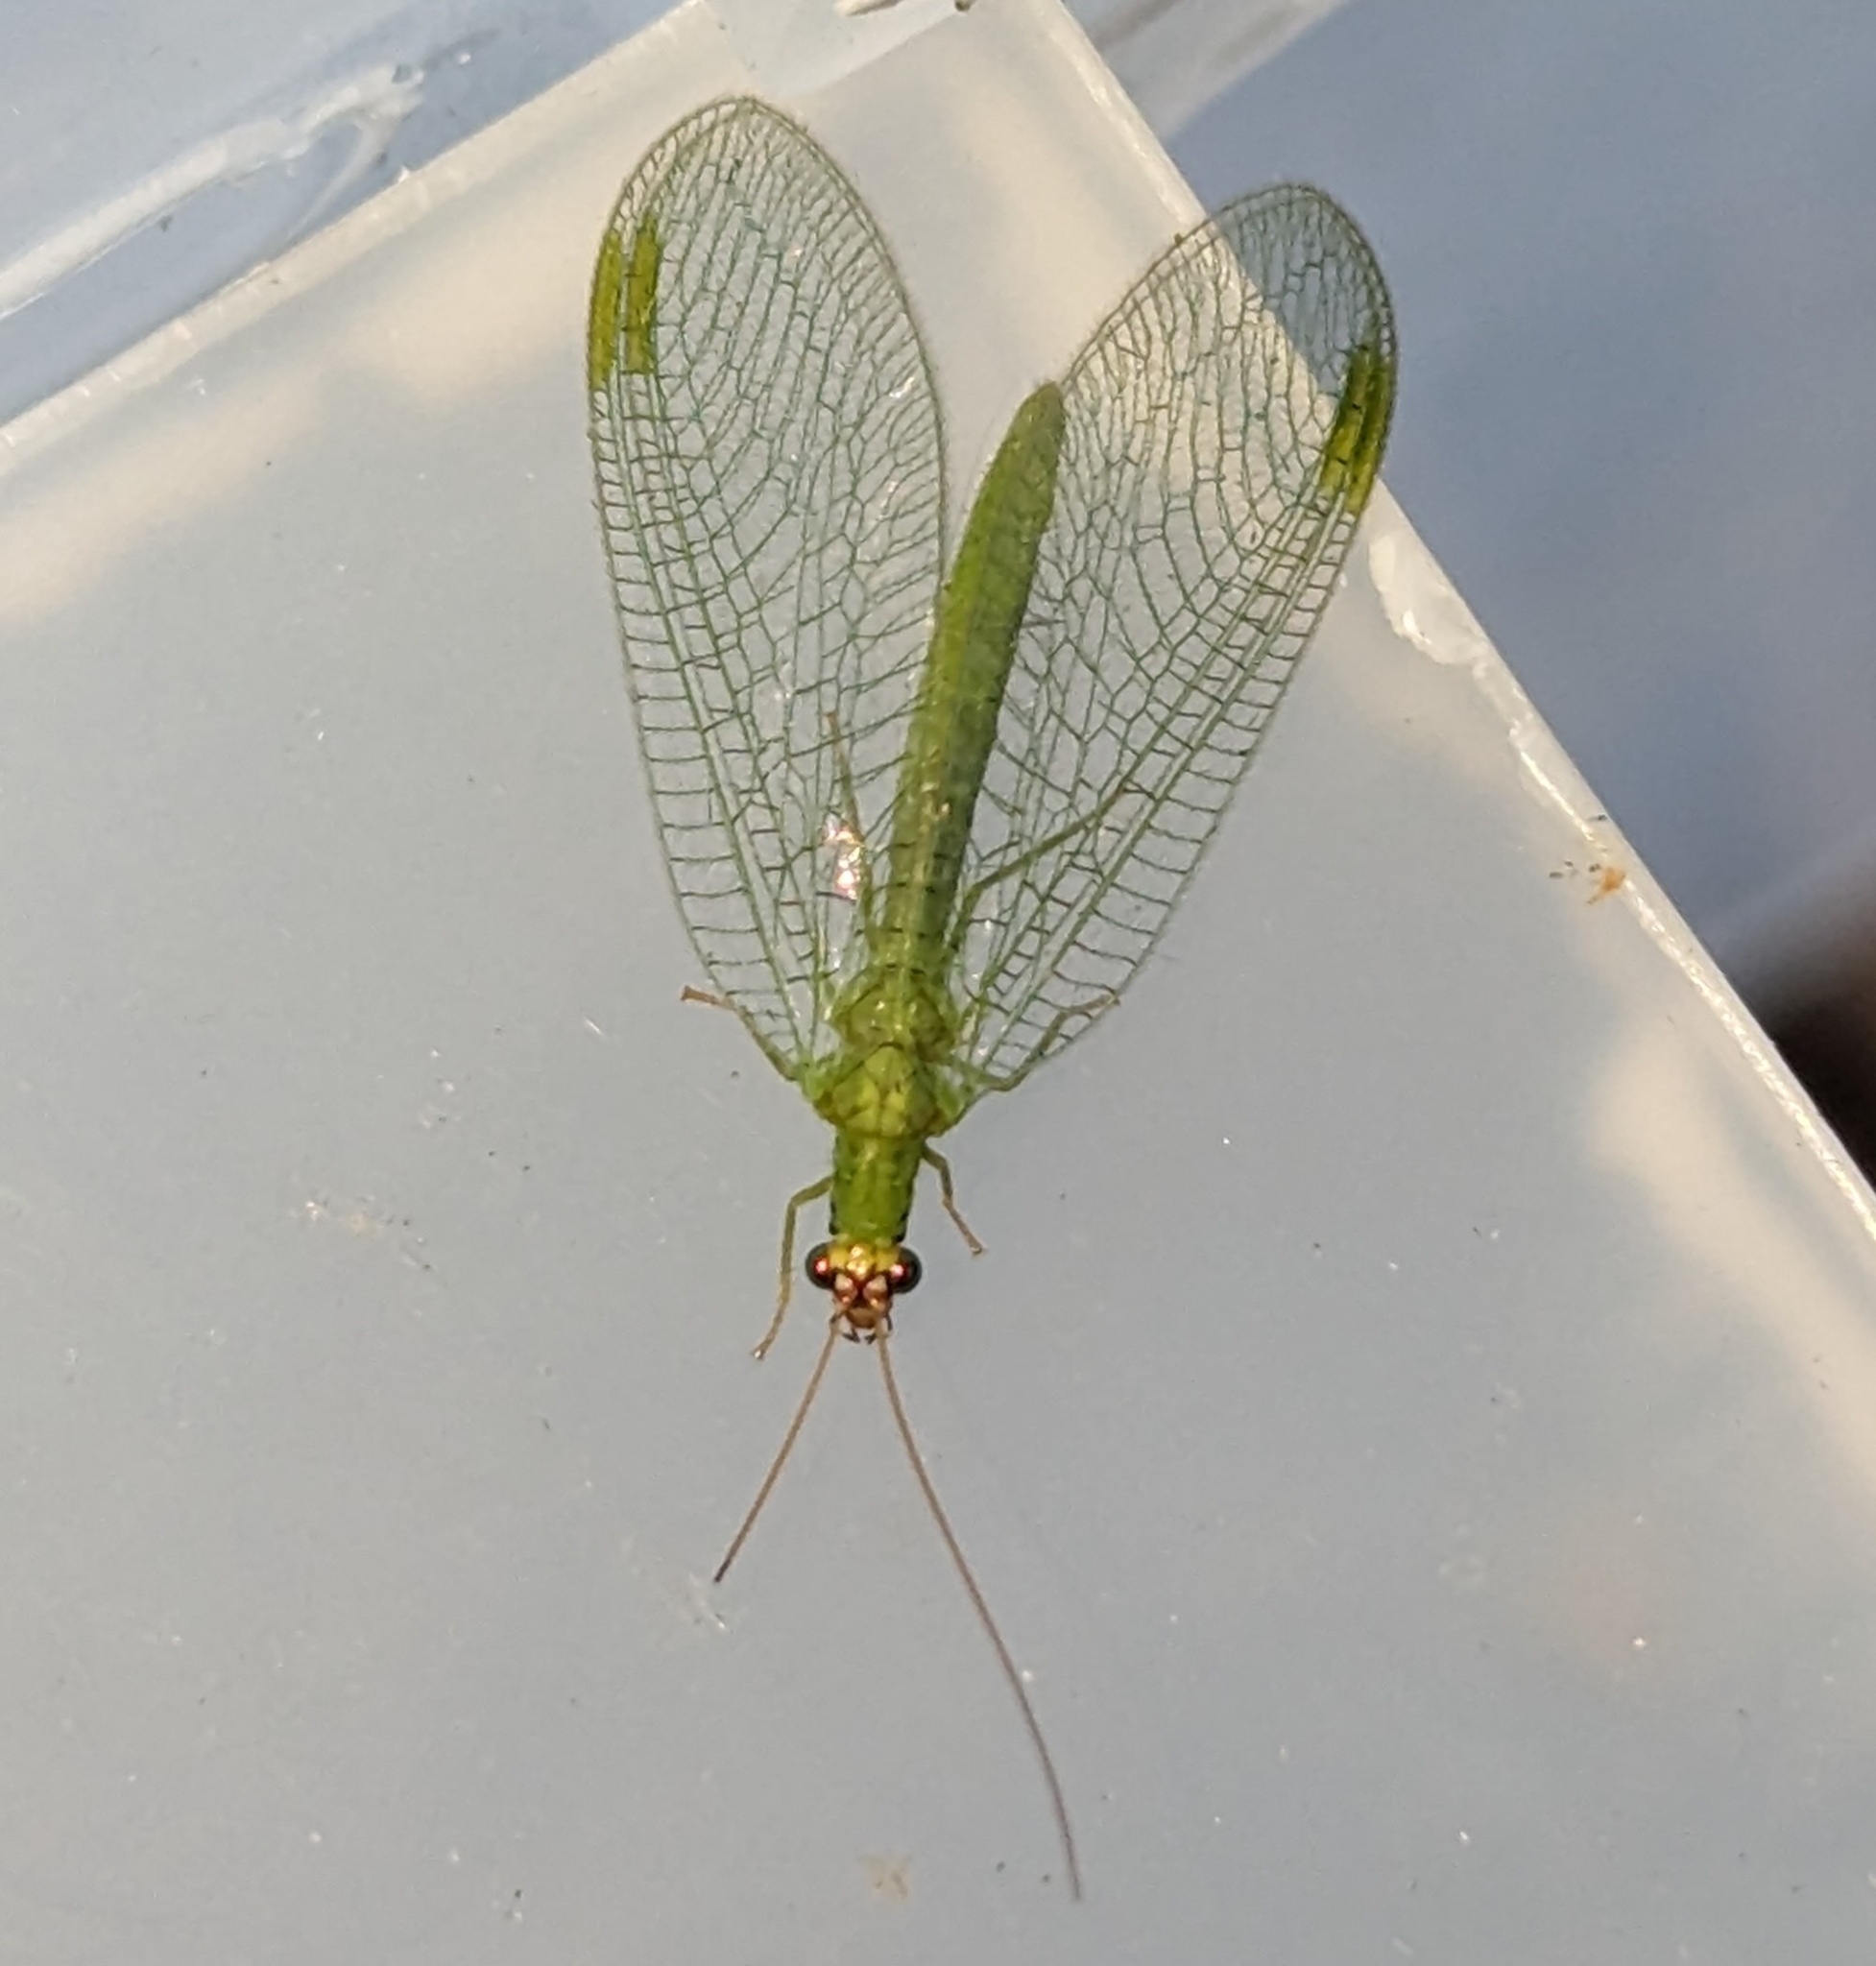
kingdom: Animalia
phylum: Arthropoda
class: Insecta
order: Neuroptera
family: Chrysopidae
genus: Chrysopa
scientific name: Chrysopa oculata
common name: Golden-eyed lacewing
